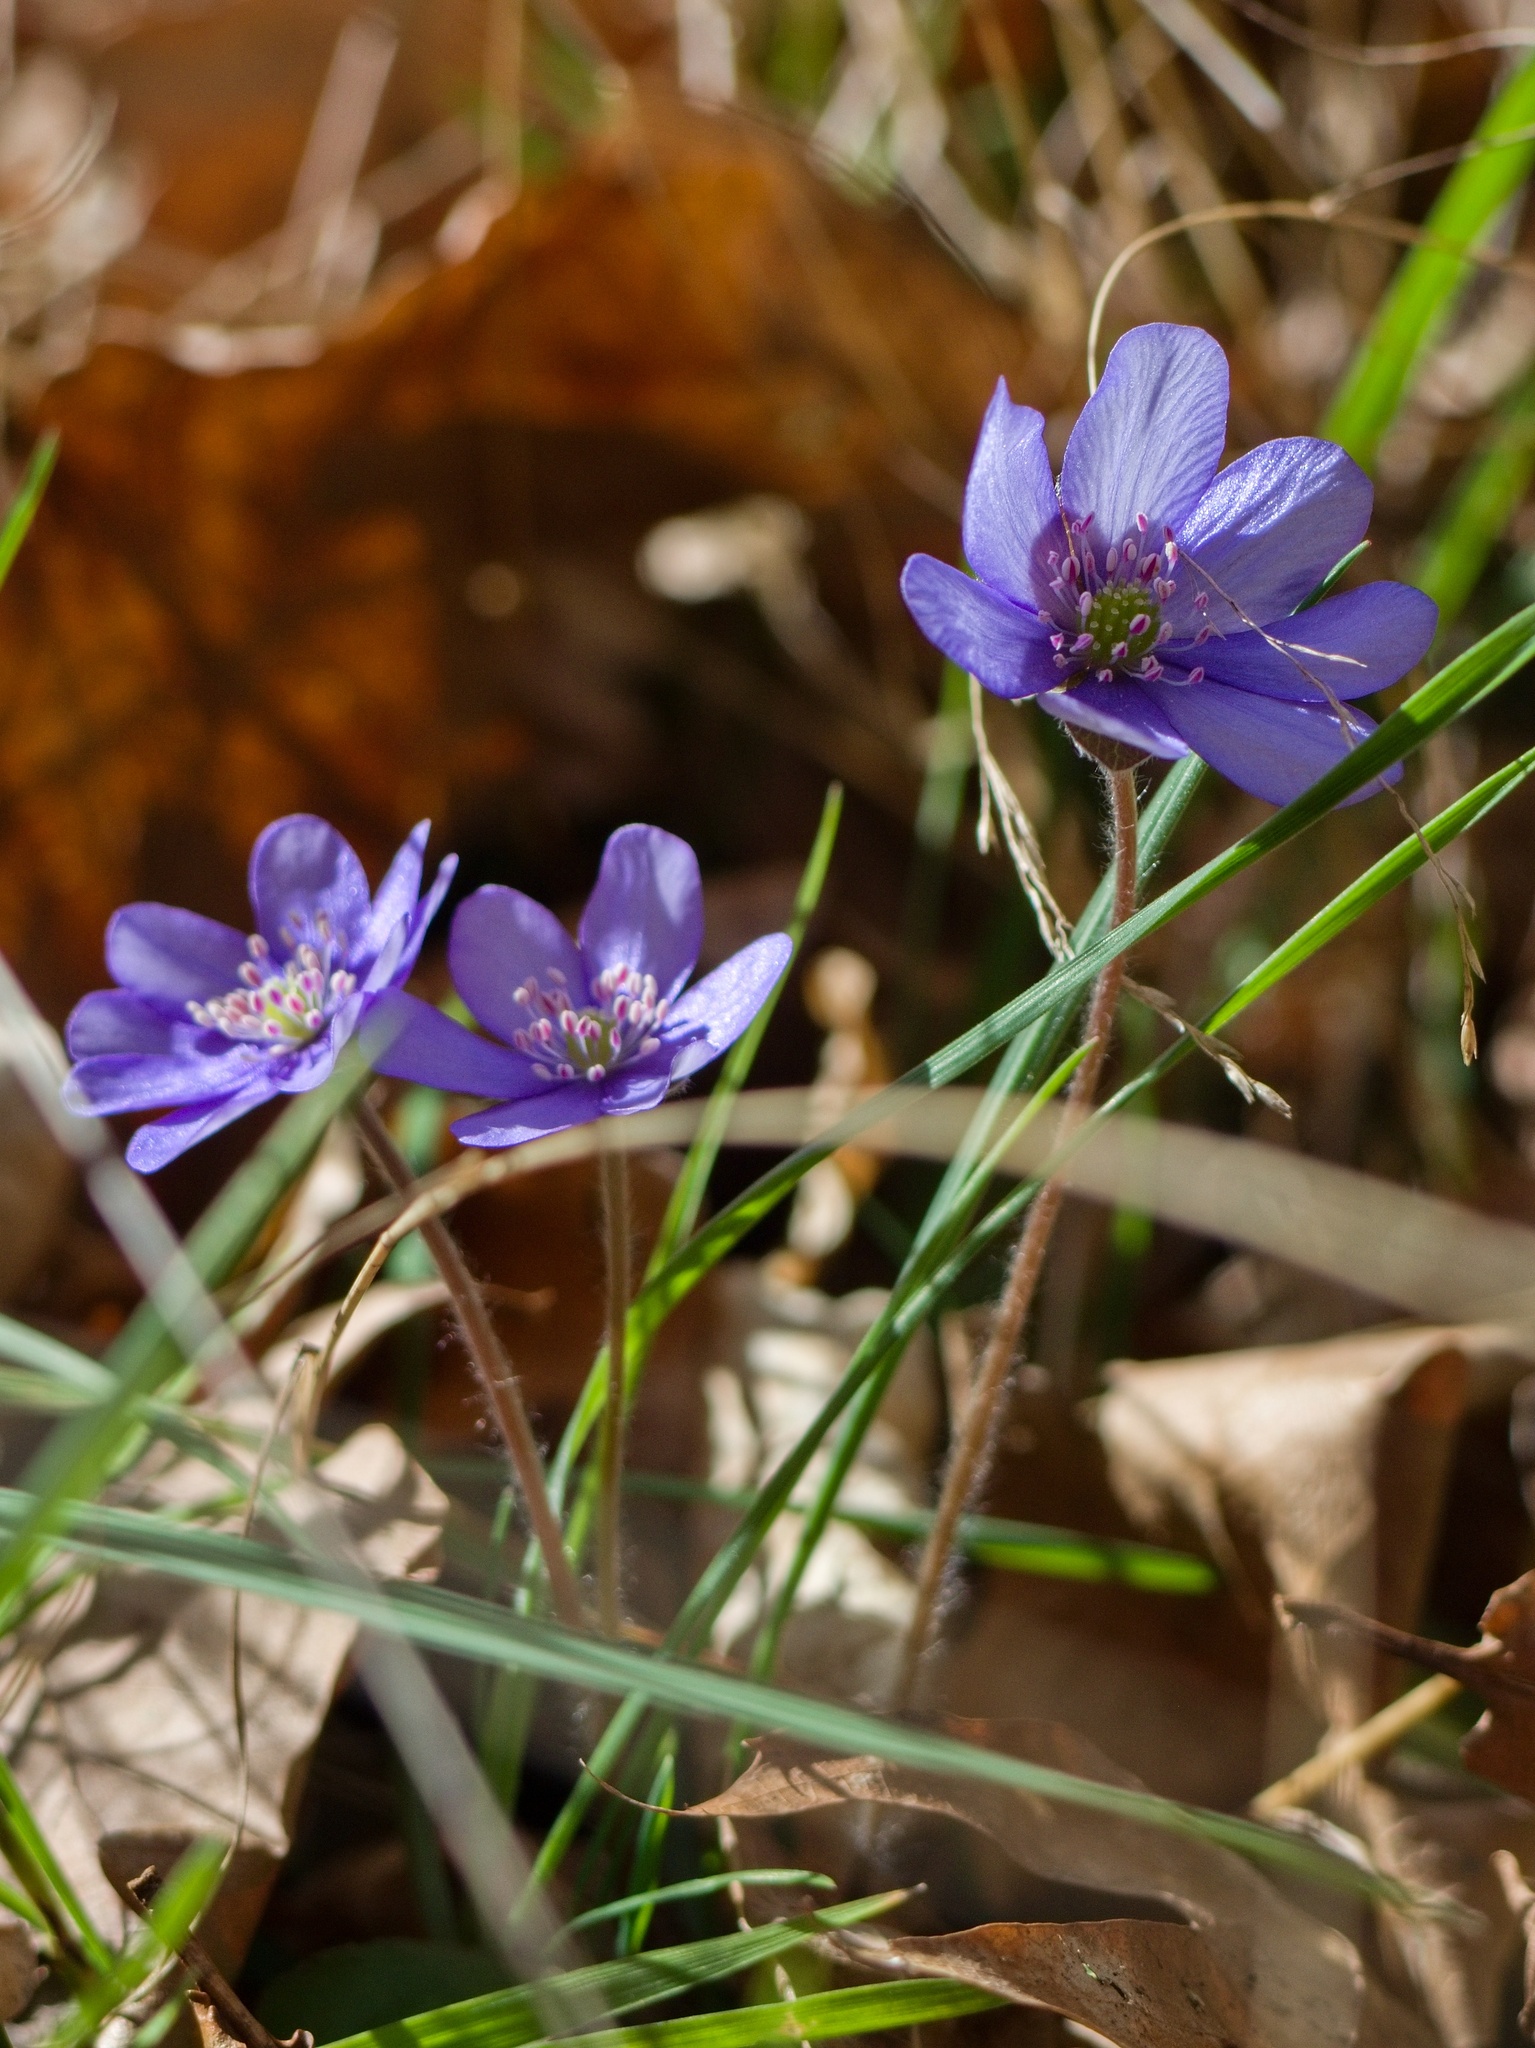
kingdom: Plantae
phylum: Tracheophyta
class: Magnoliopsida
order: Ranunculales
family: Ranunculaceae
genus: Hepatica
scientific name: Hepatica nobilis
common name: Liverleaf
